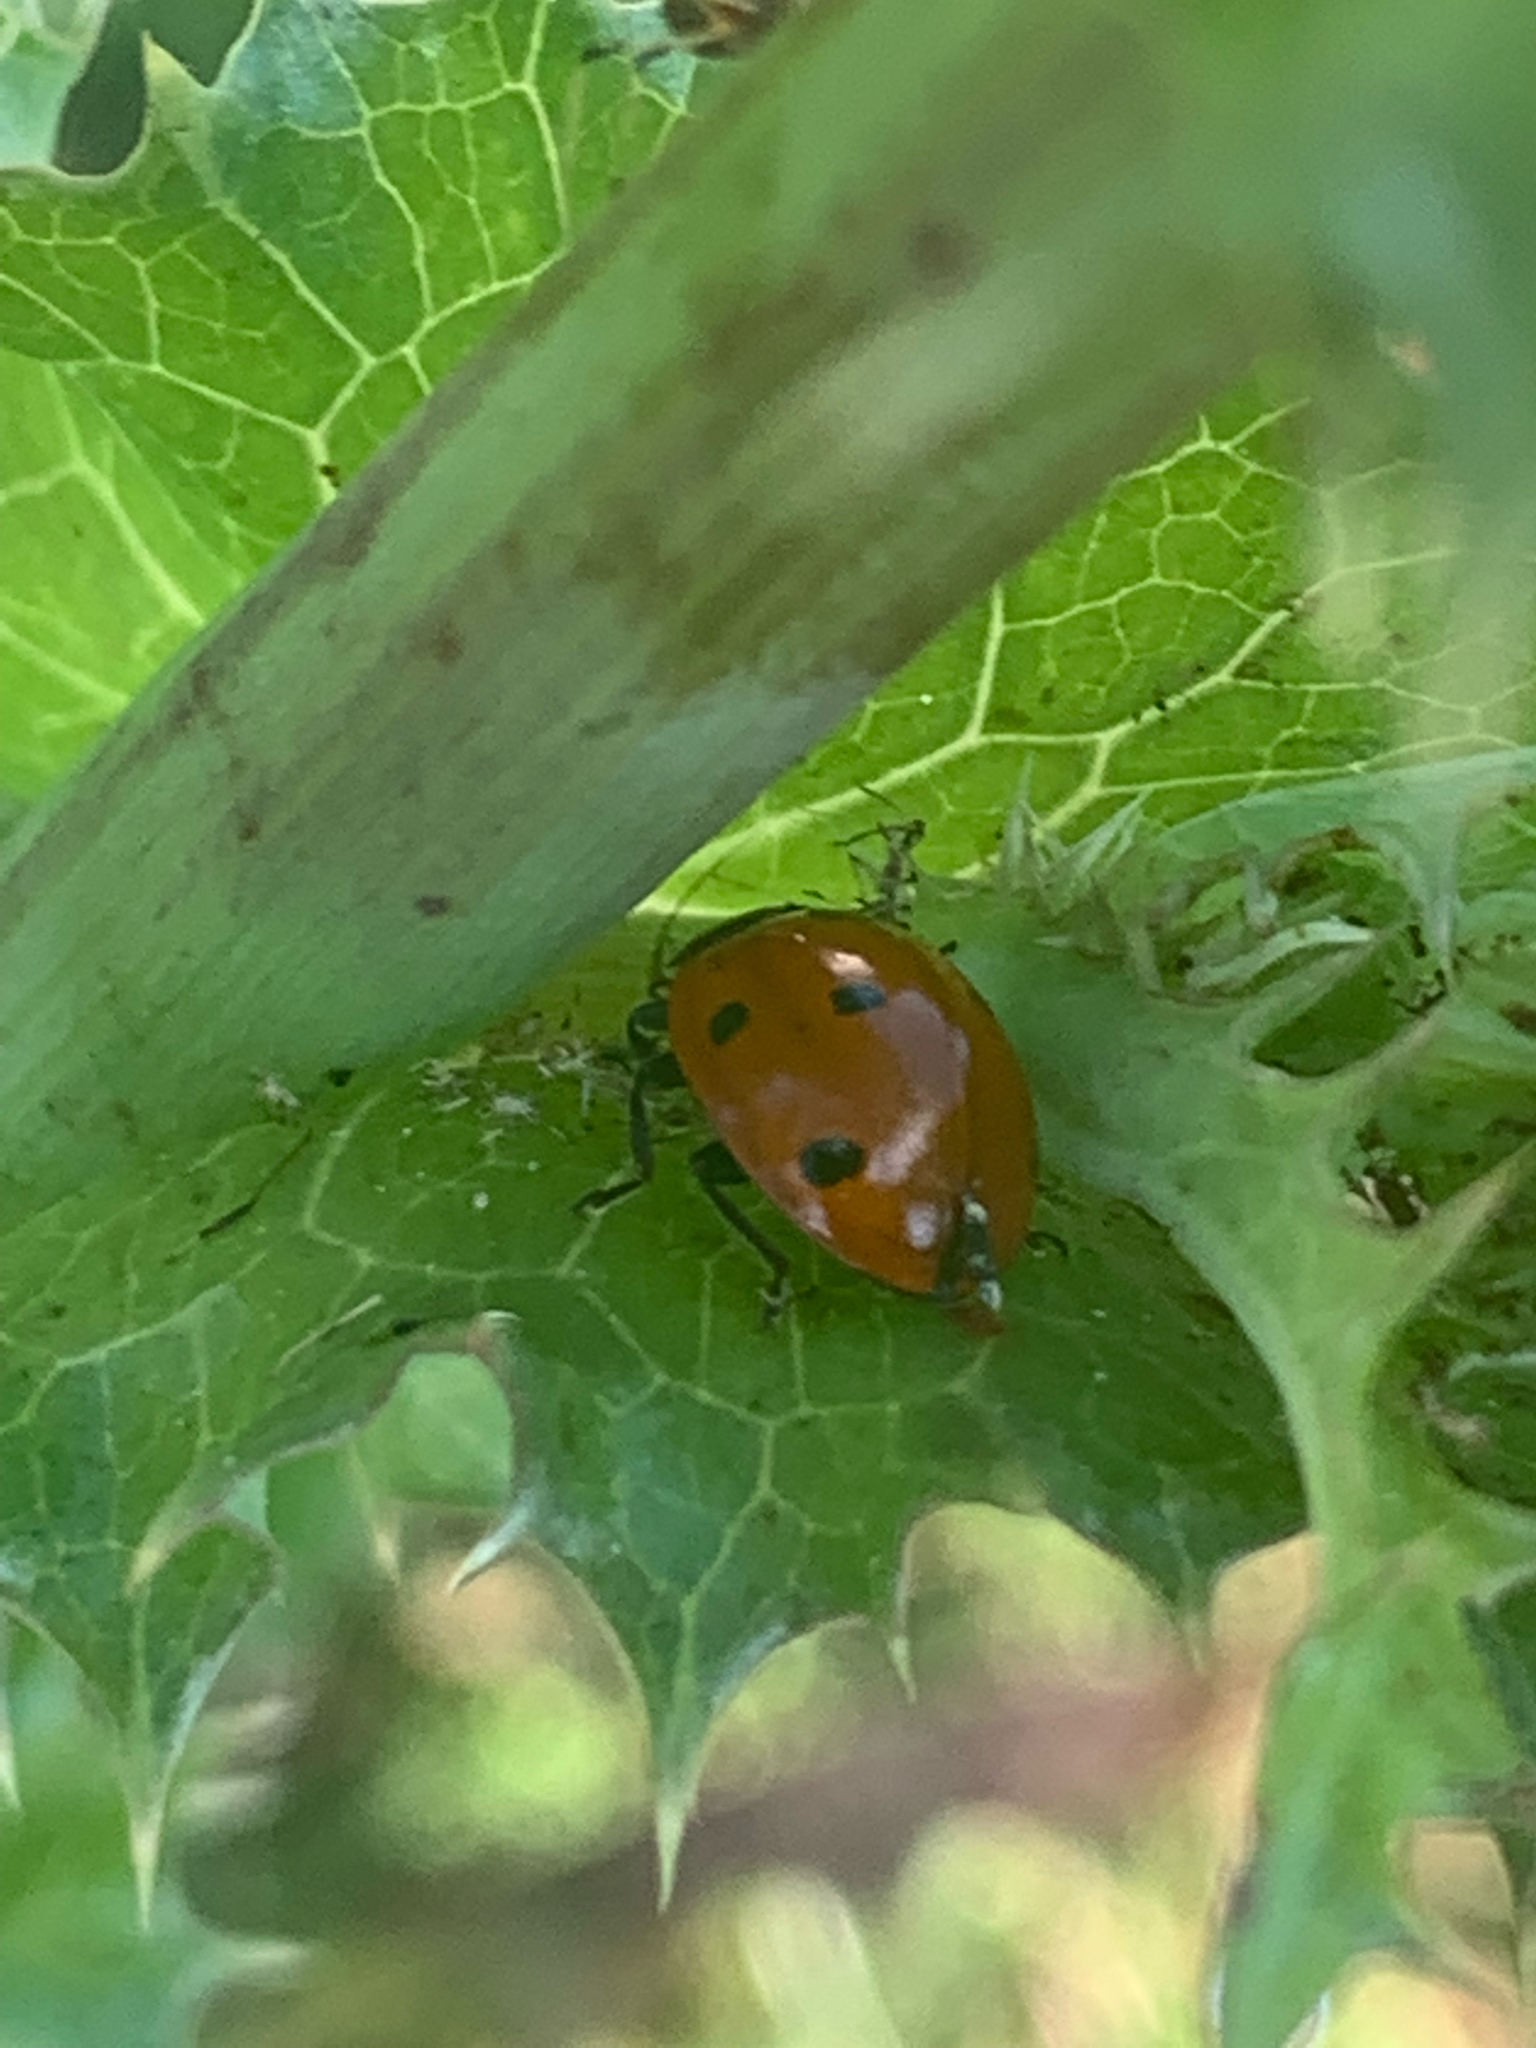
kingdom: Animalia
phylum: Arthropoda
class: Insecta
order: Coleoptera
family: Coccinellidae
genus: Coccinella
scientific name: Coccinella septempunctata
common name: Sevenspotted lady beetle
